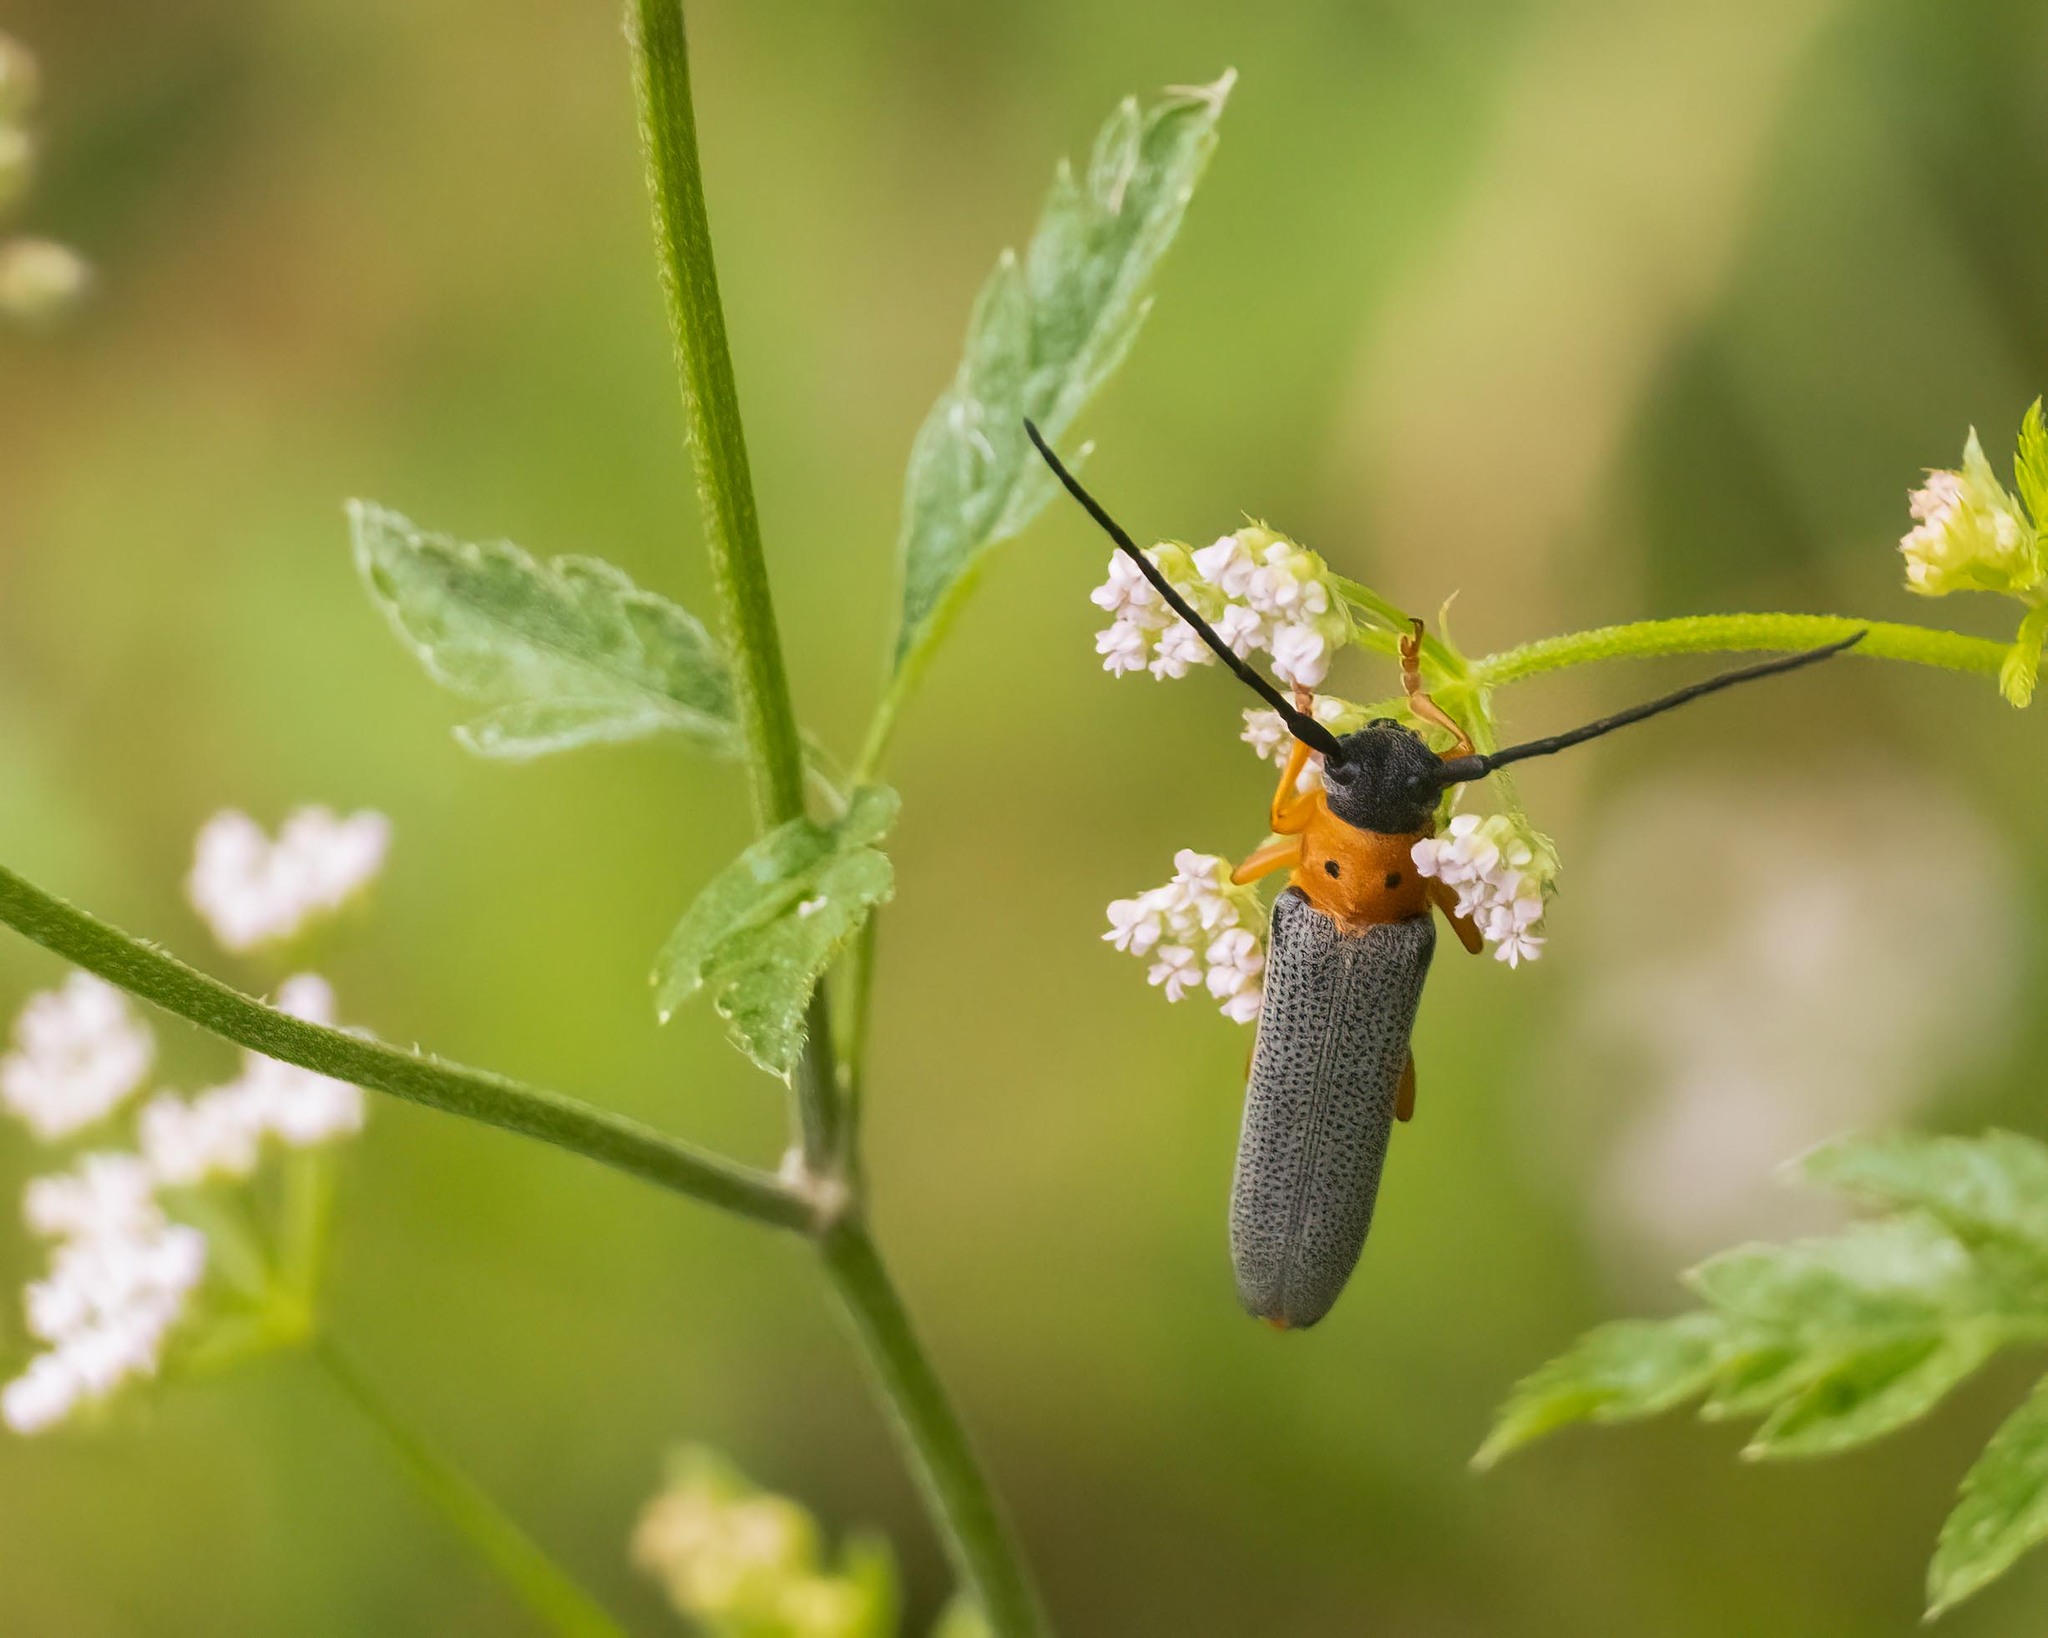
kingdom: Animalia
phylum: Arthropoda
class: Insecta
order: Coleoptera
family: Cerambycidae
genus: Oberea
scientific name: Oberea oculata
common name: Eyed longhorn beetle
